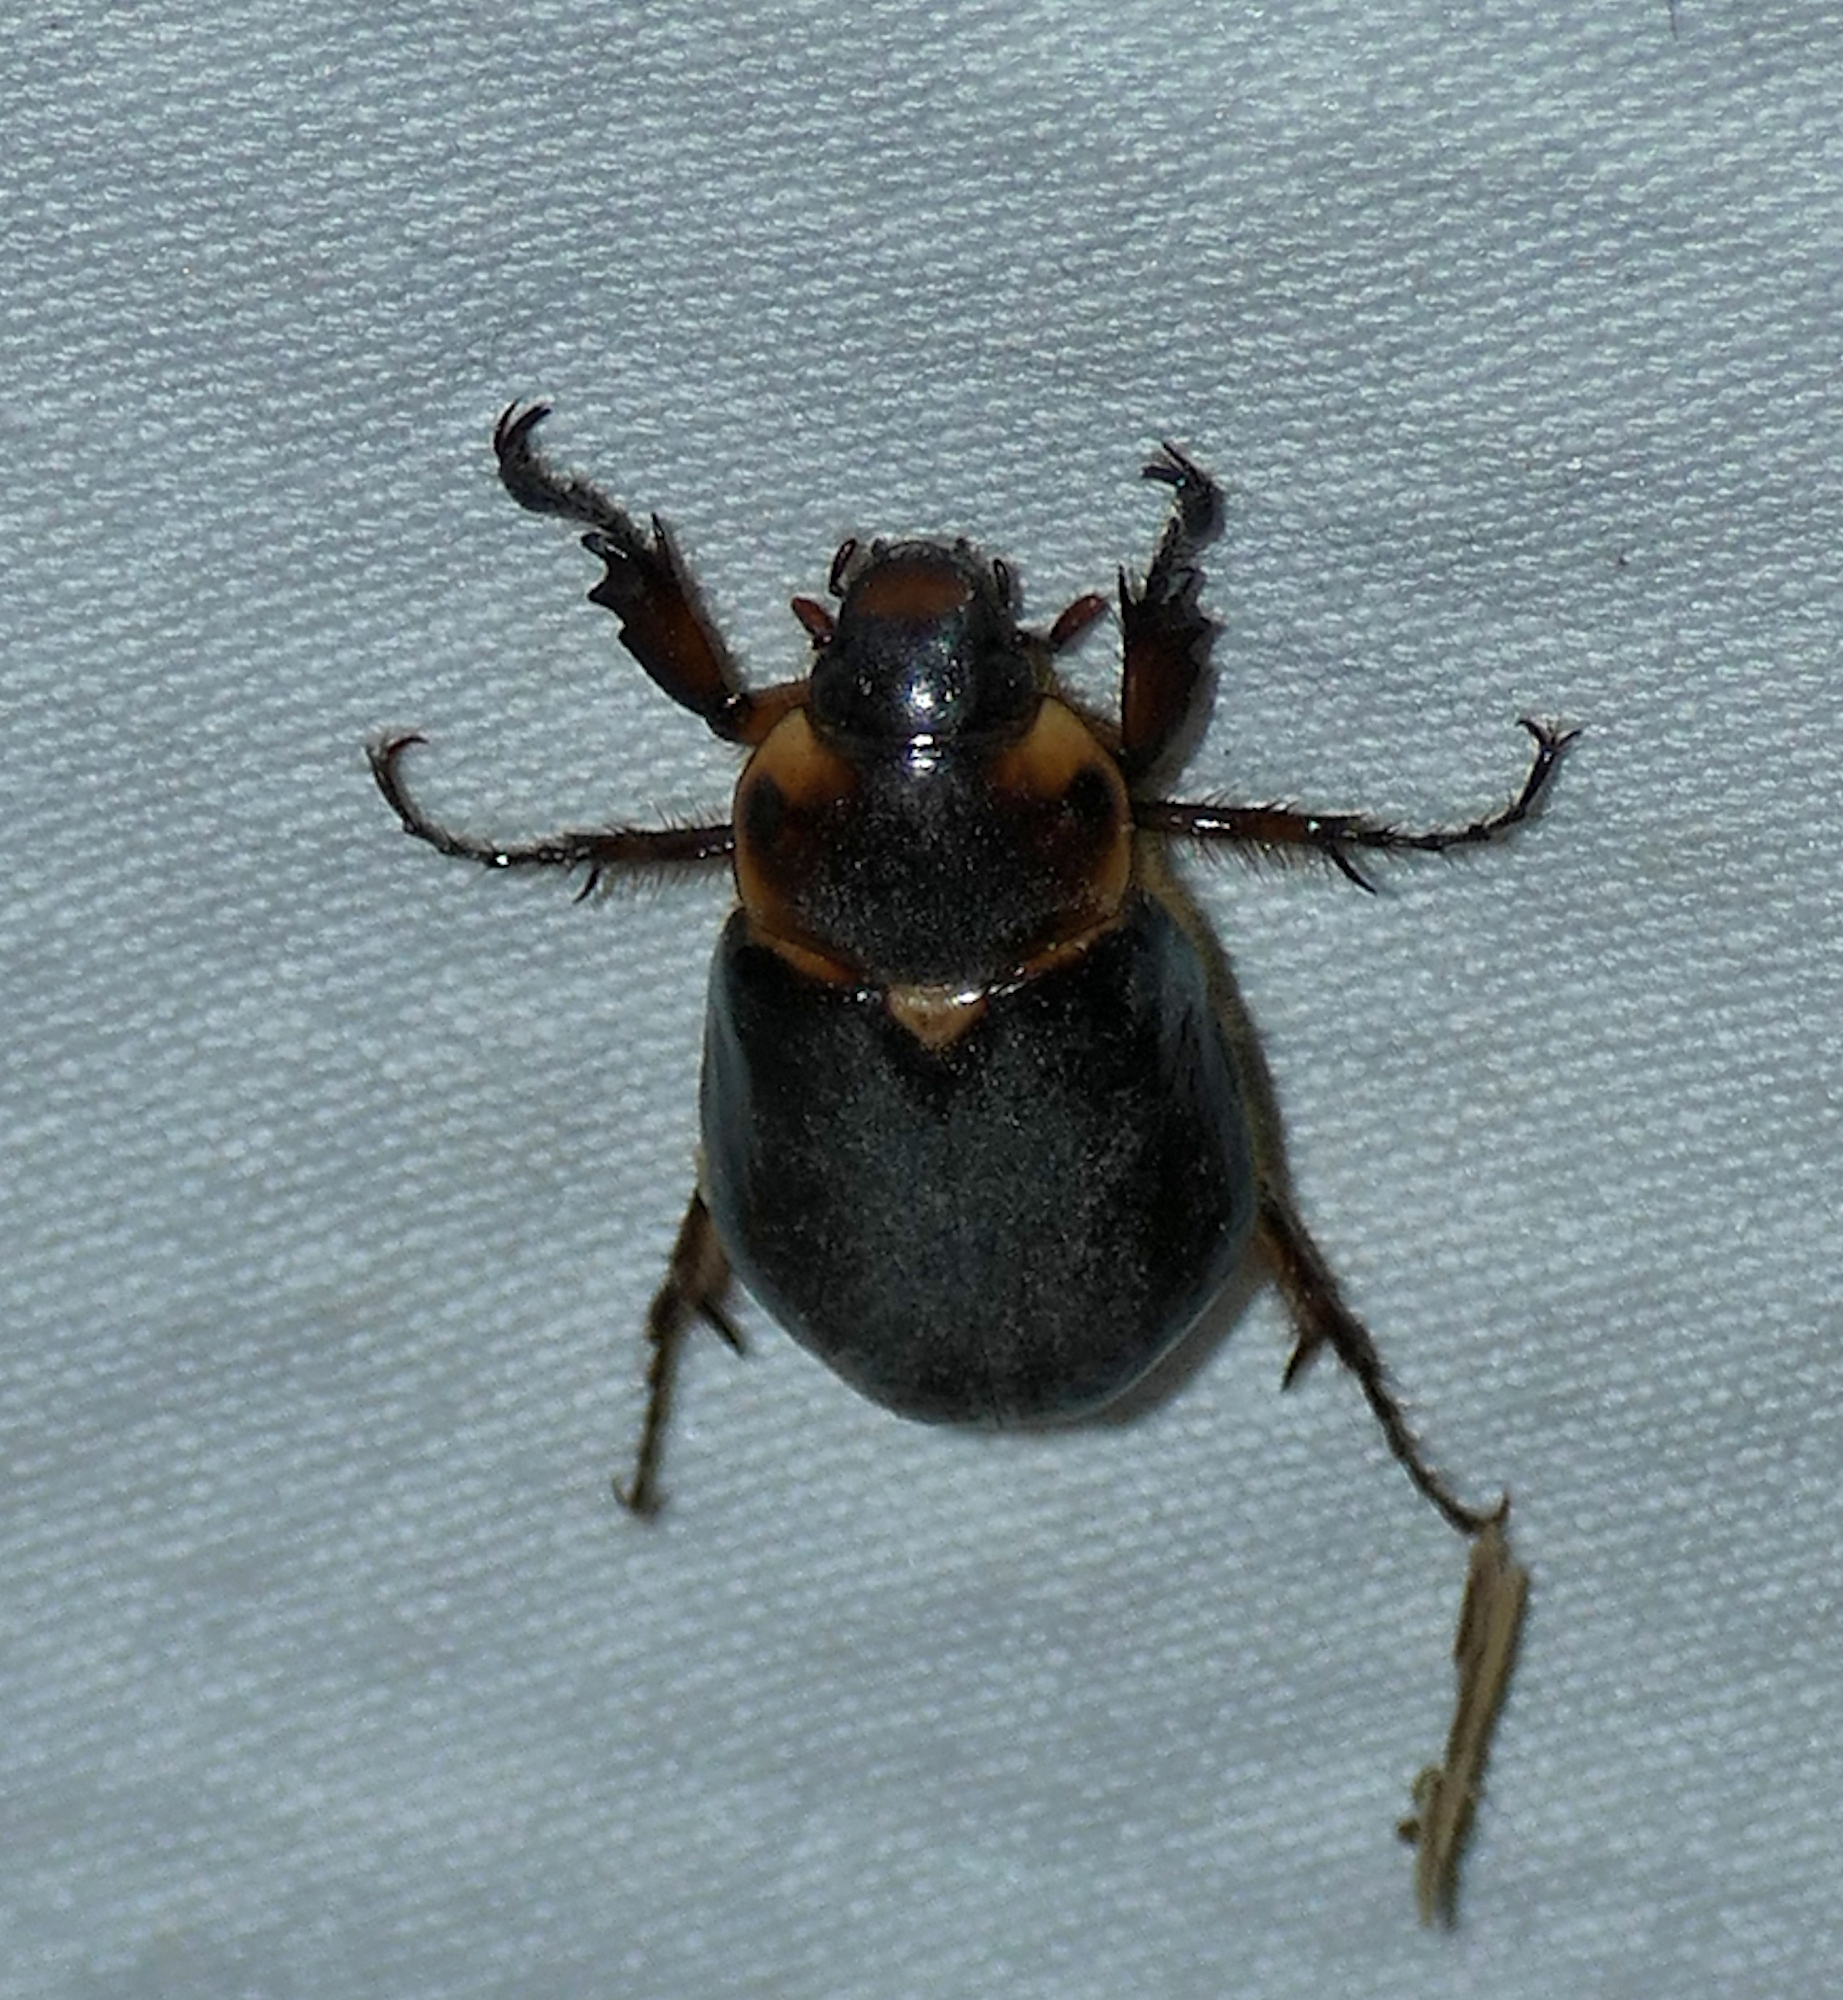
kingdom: Animalia
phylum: Arthropoda
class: Insecta
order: Coleoptera
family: Scarabaeidae
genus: Ancognatha
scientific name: Ancognatha manca
